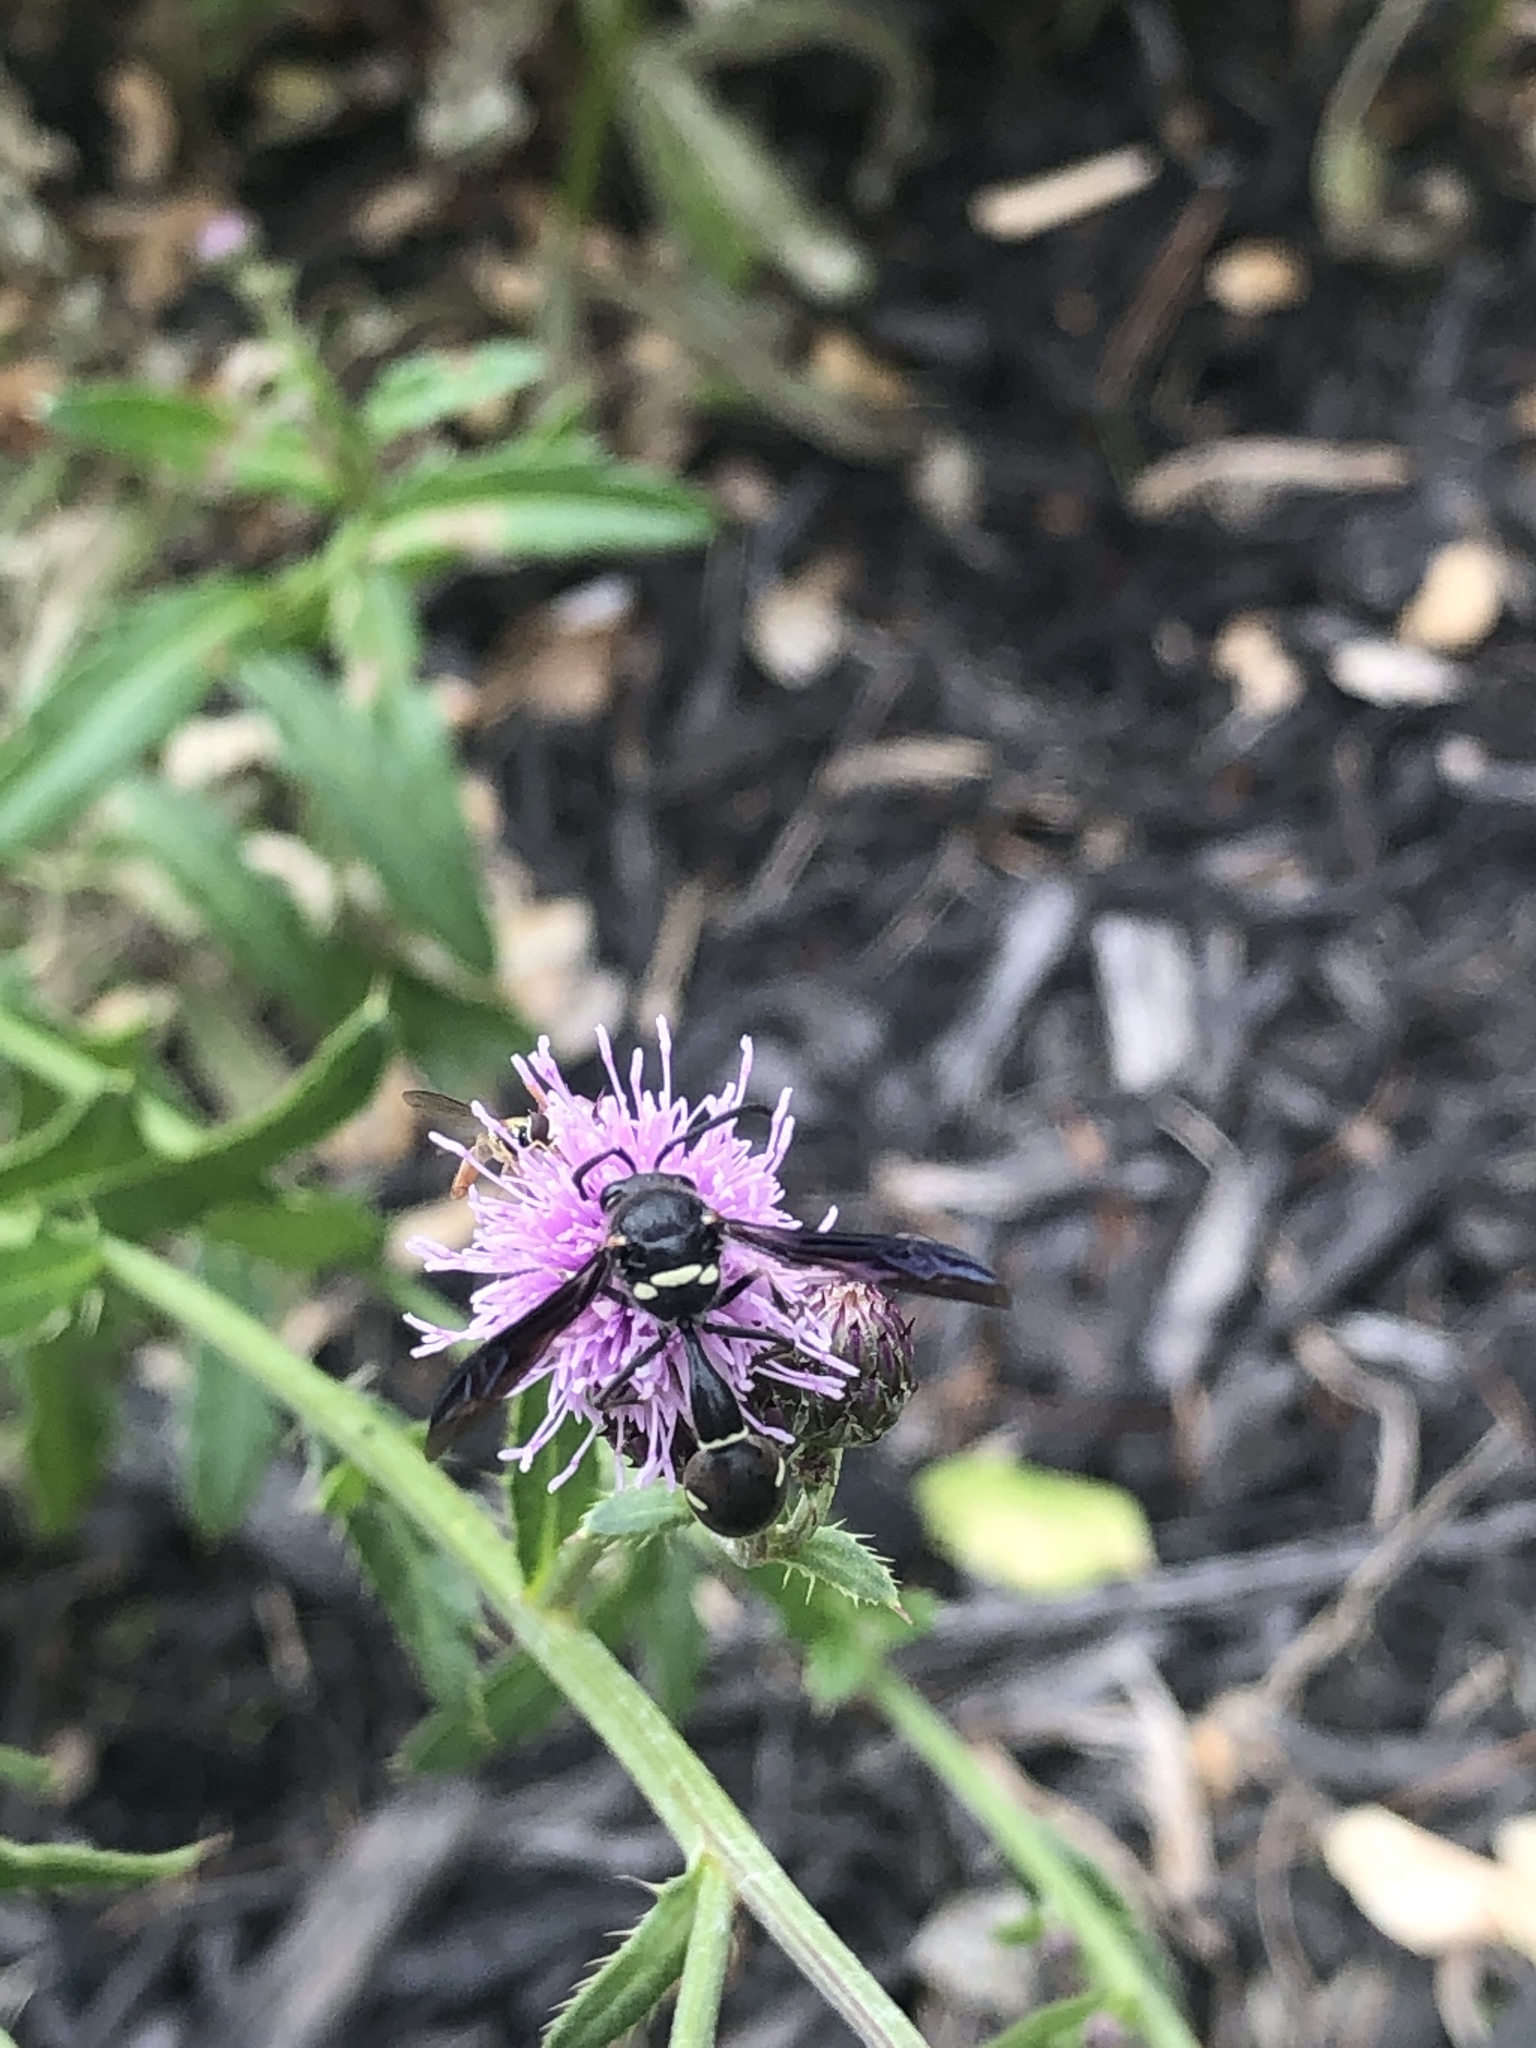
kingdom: Animalia
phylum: Arthropoda
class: Insecta
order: Hymenoptera
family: Vespidae
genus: Eumenes
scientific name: Eumenes fraternus
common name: Fraternal potter wasp
